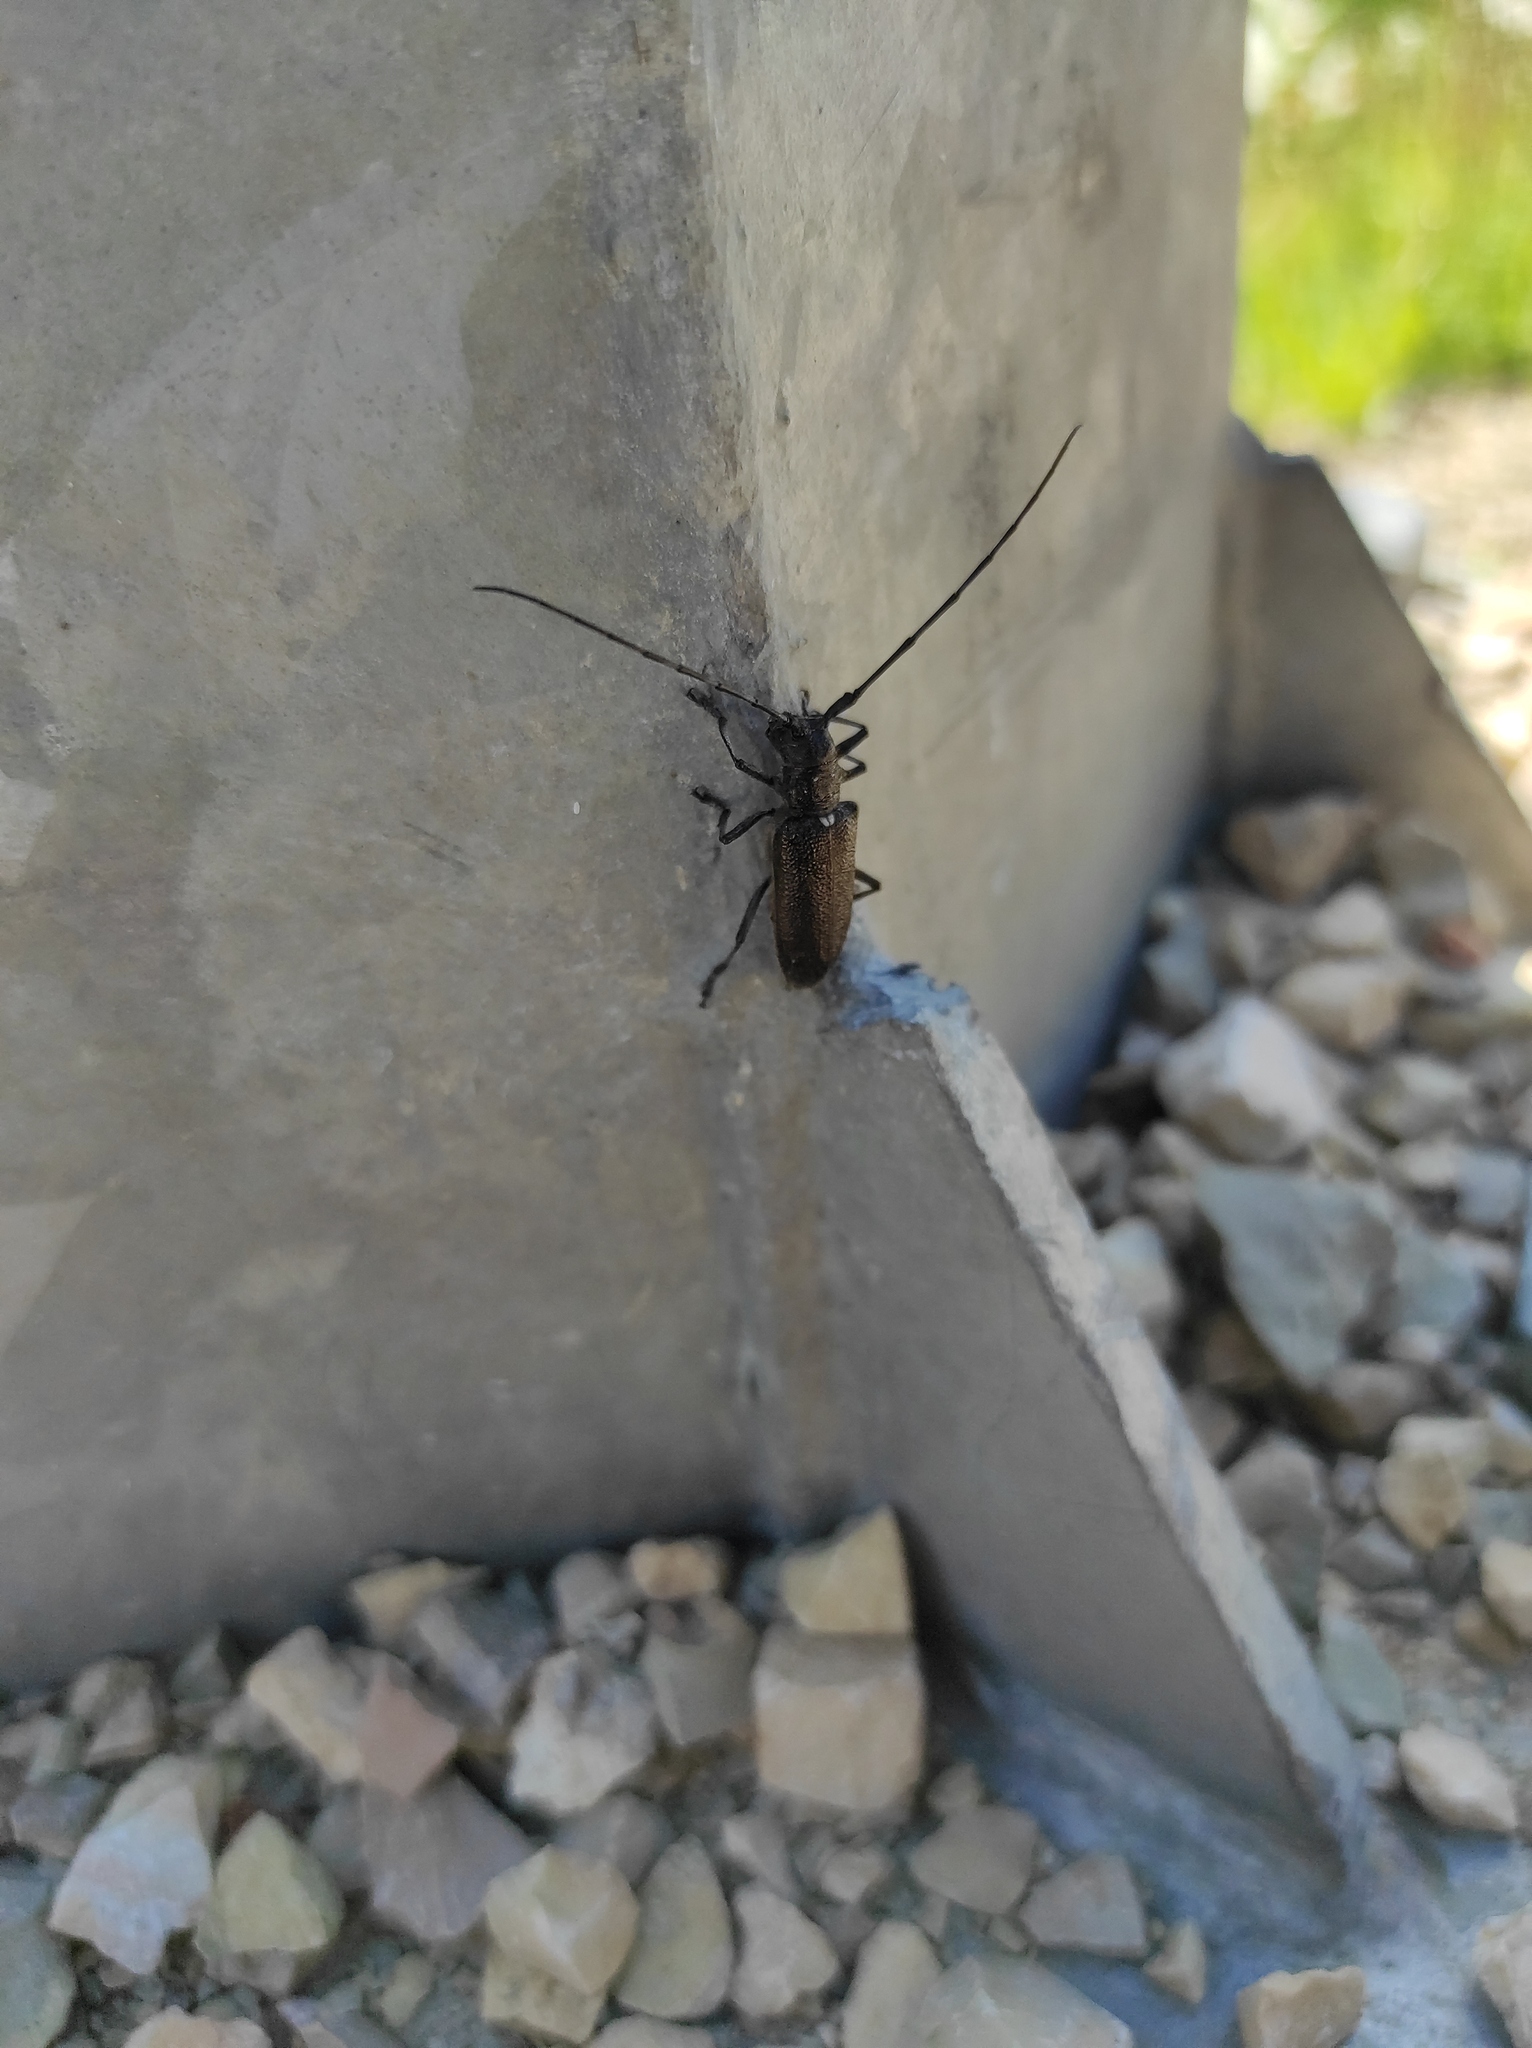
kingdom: Animalia
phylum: Arthropoda
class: Insecta
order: Coleoptera
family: Cerambycidae
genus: Monochamus
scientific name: Monochamus sutor
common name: Pine sawyer
